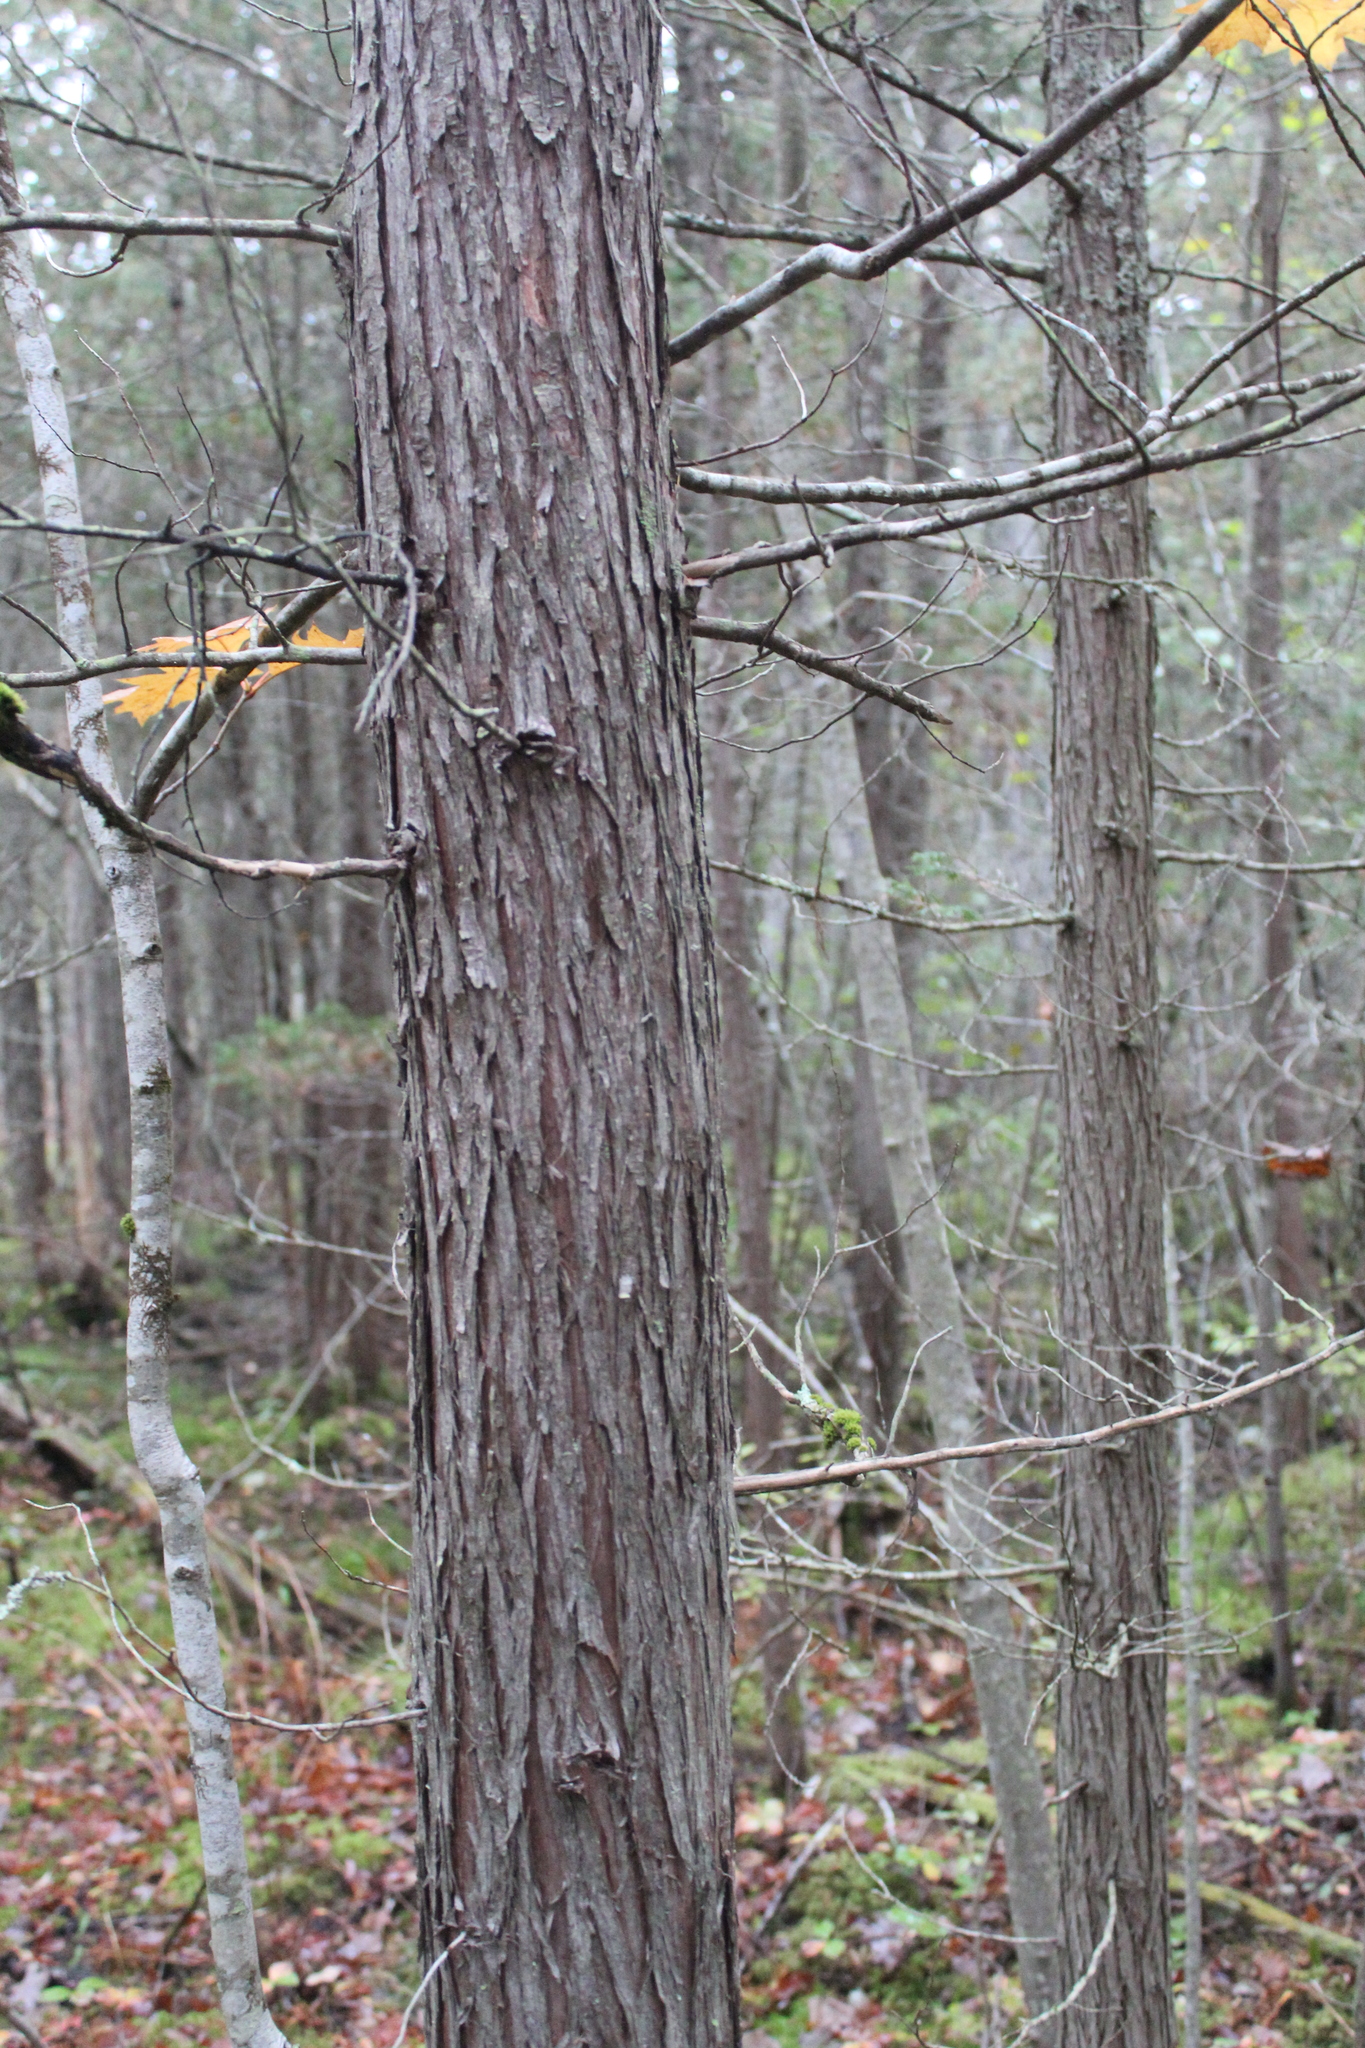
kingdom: Plantae
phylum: Tracheophyta
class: Pinopsida
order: Pinales
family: Cupressaceae
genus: Chamaecyparis
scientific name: Chamaecyparis thyoides
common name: Atlantic white cedar
